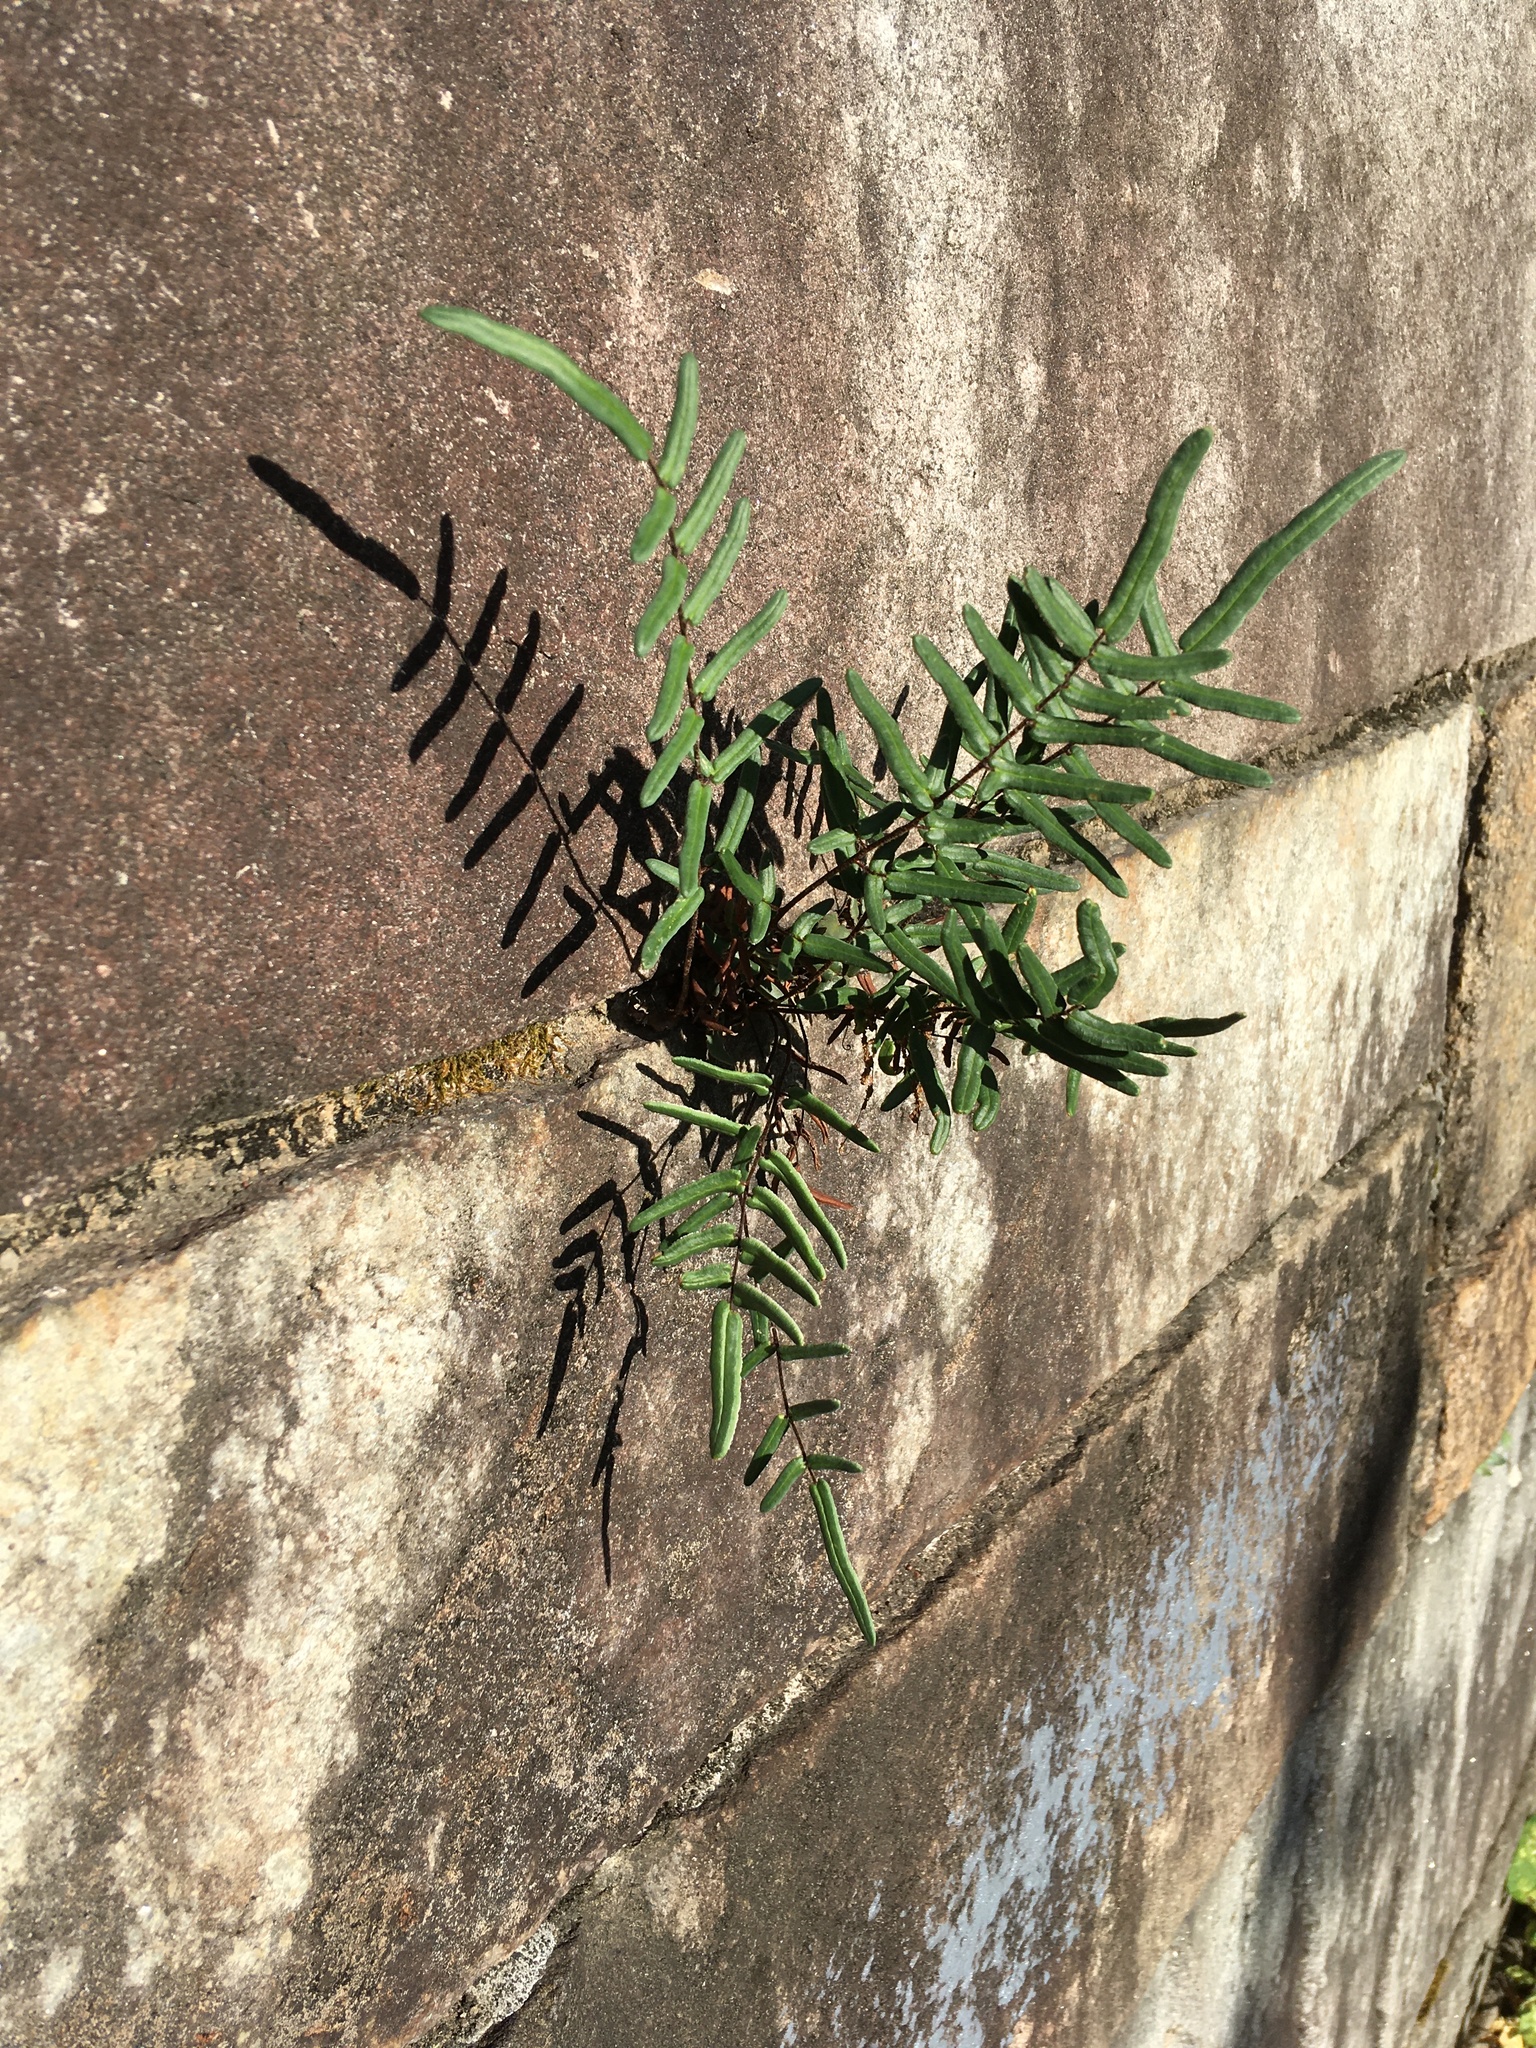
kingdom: Plantae
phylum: Tracheophyta
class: Polypodiopsida
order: Polypodiales
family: Pteridaceae
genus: Pellaea
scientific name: Pellaea atropurpurea
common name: Hairy cliffbrake
